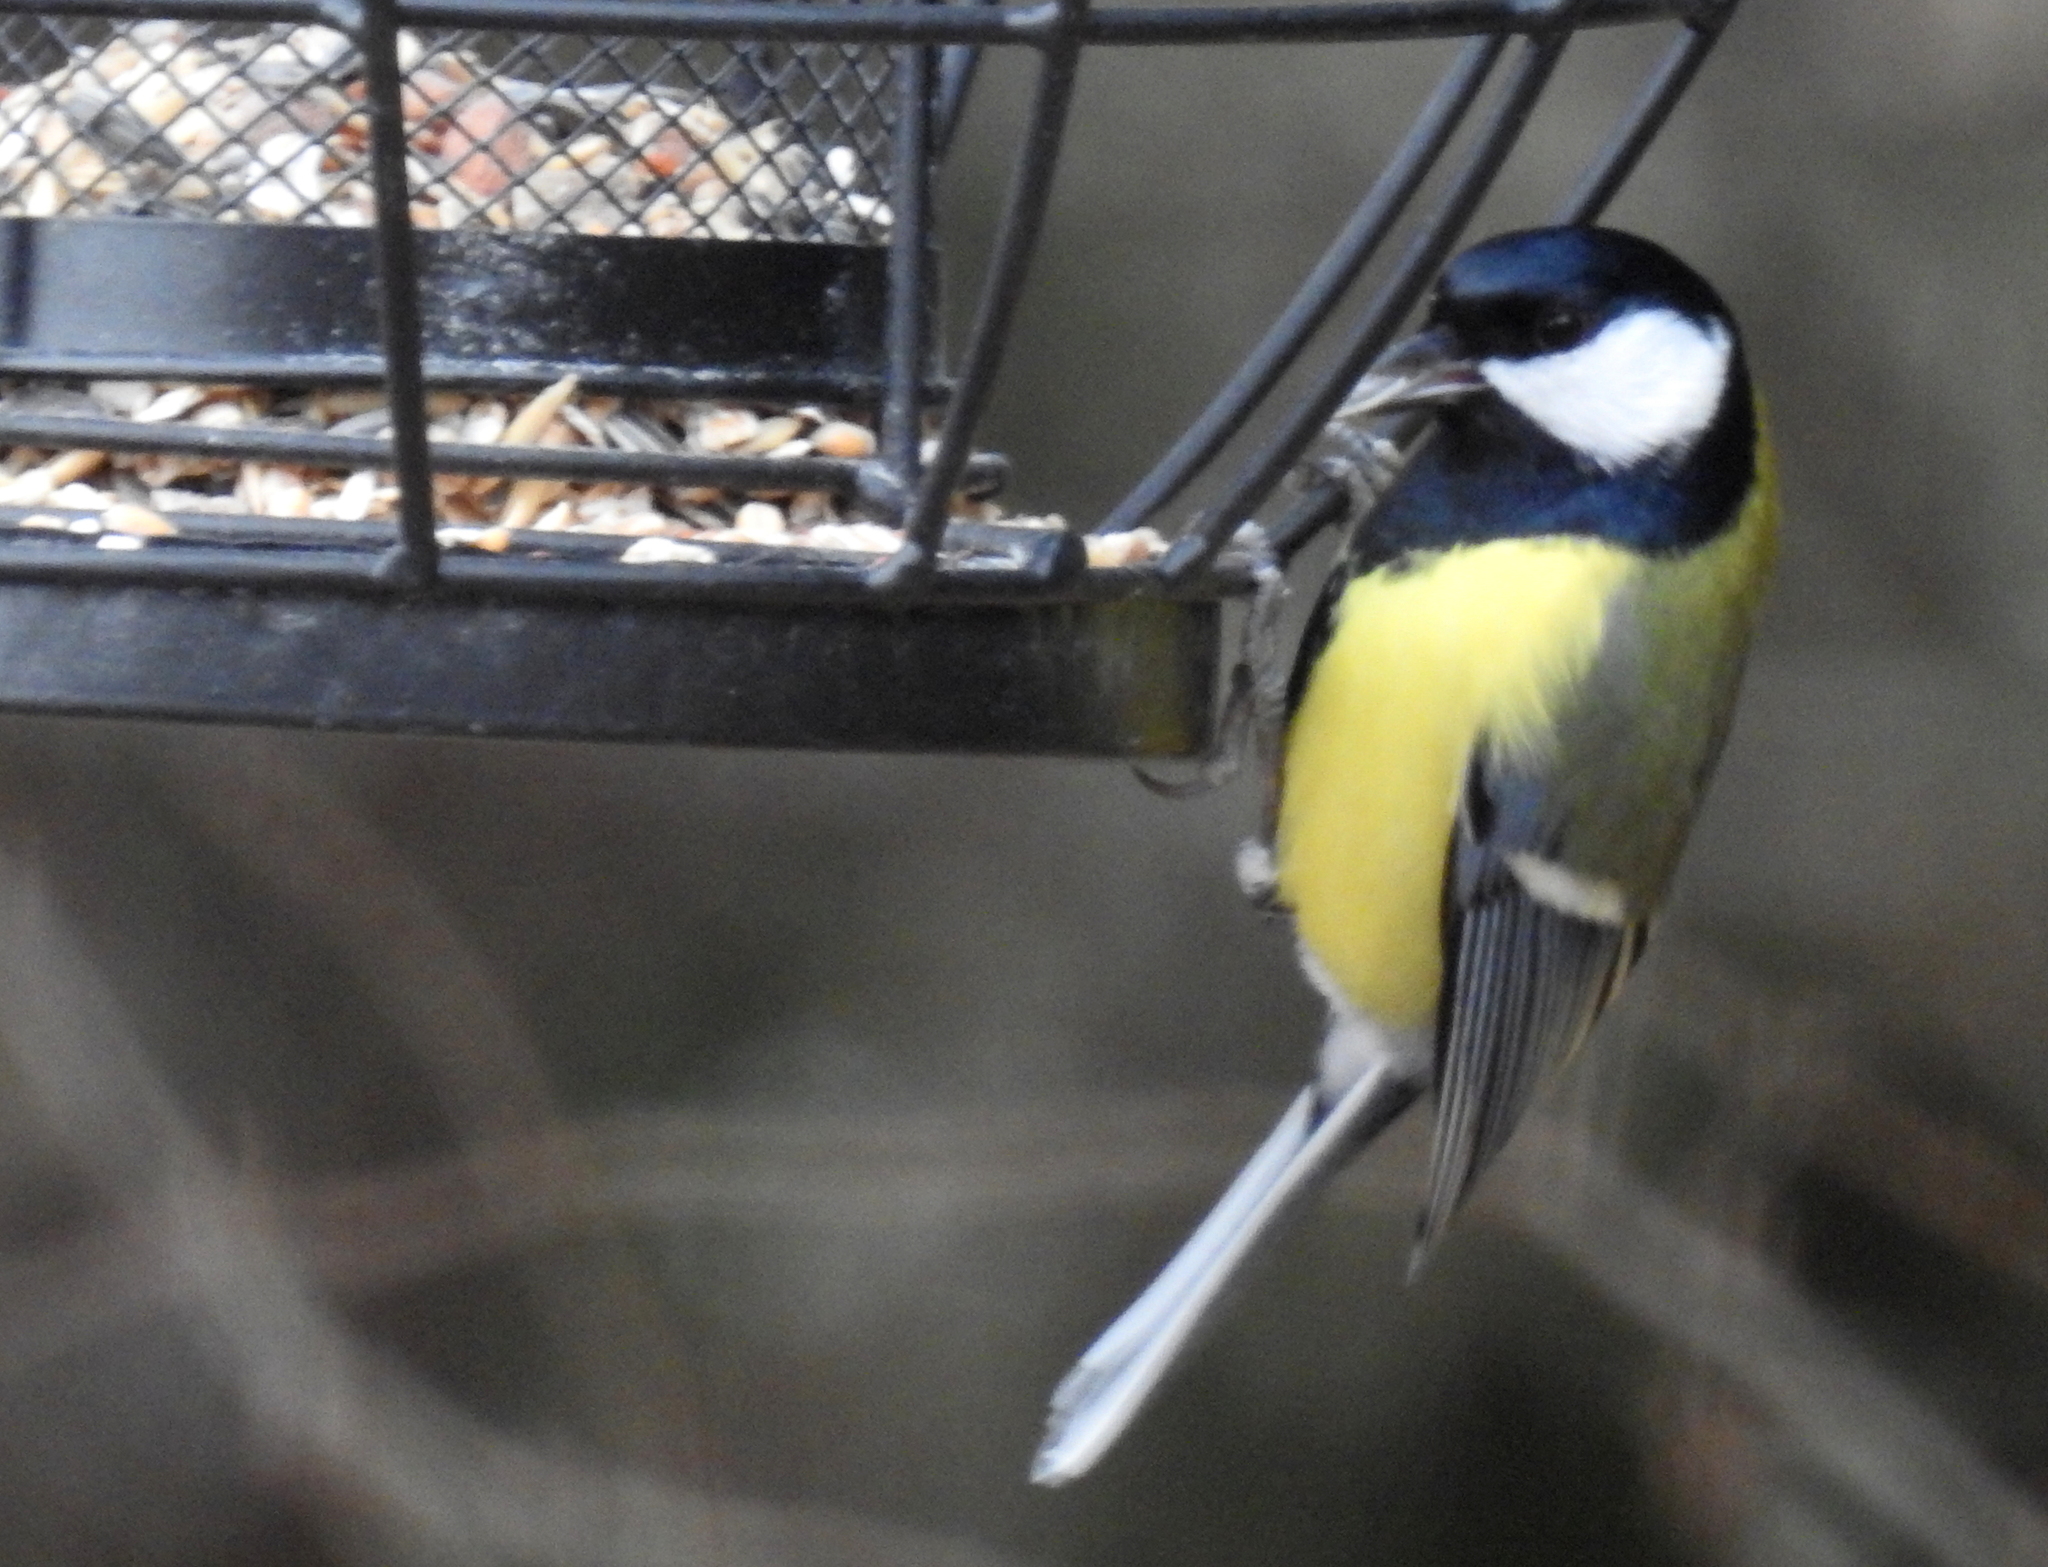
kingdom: Animalia
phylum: Chordata
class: Aves
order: Passeriformes
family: Paridae
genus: Parus
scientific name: Parus major
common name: Great tit
